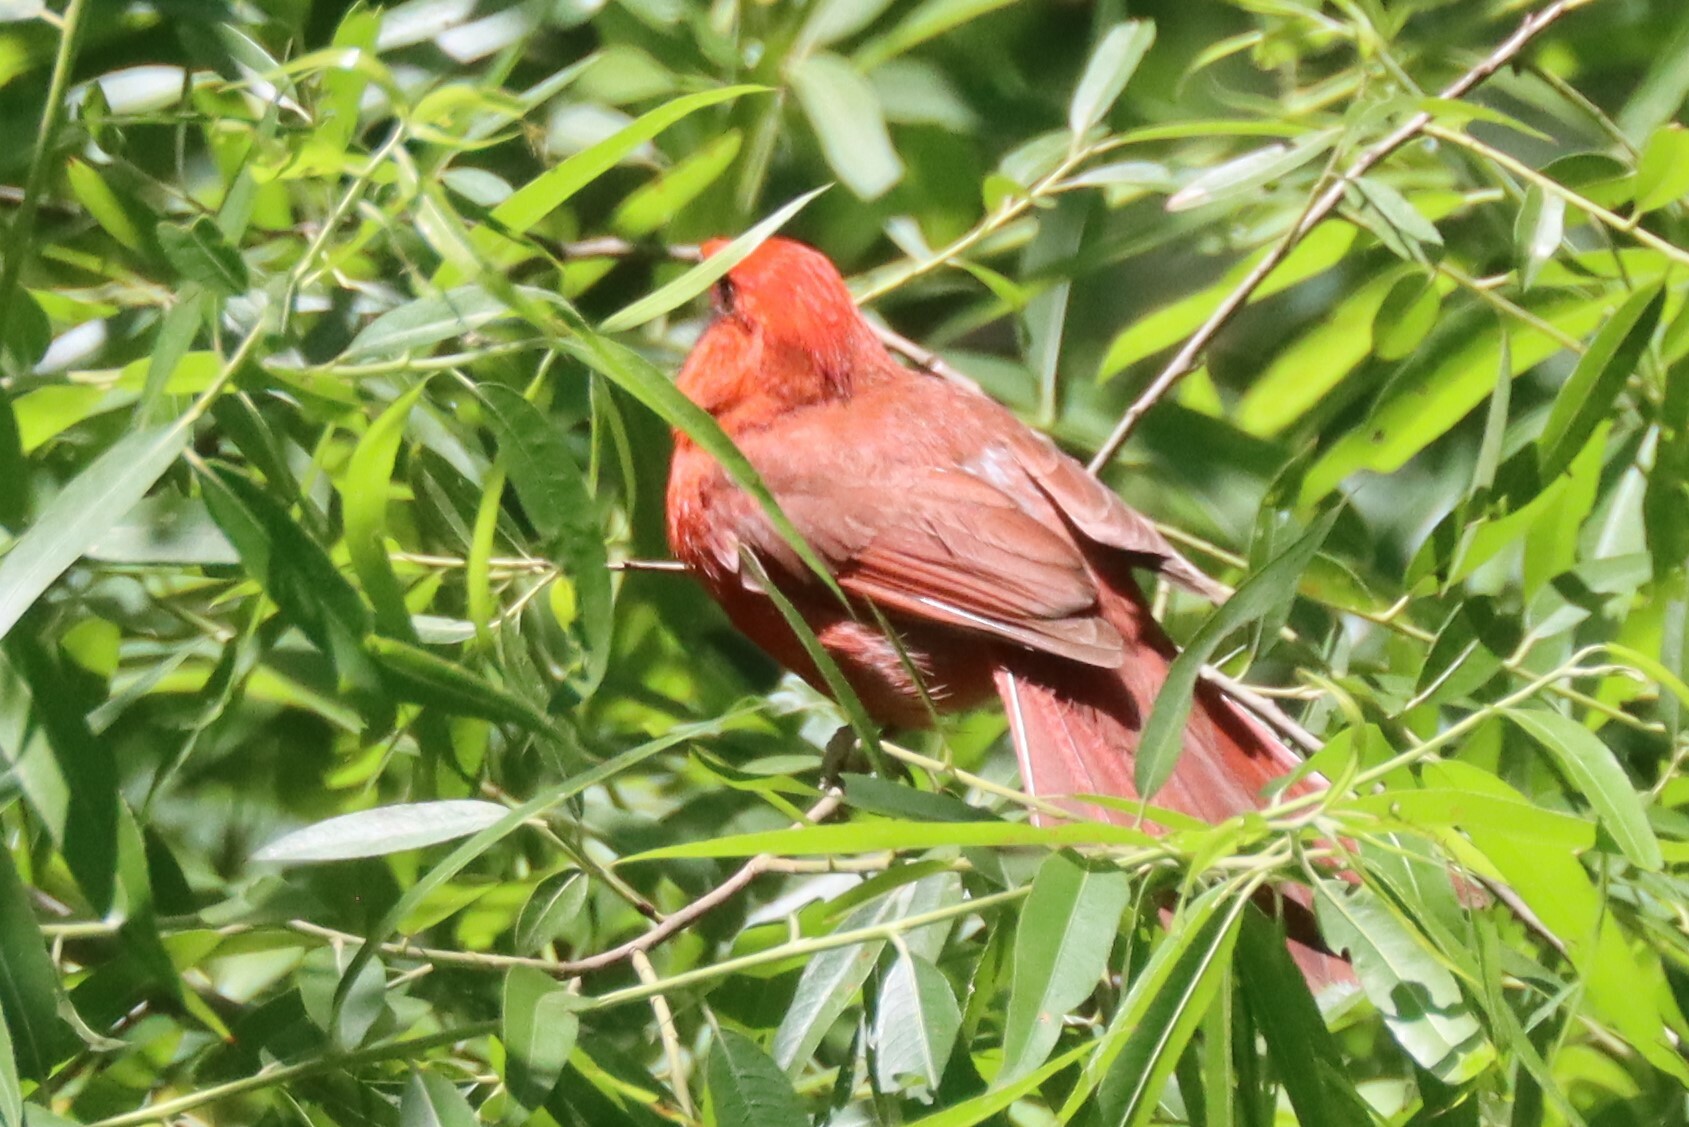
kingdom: Animalia
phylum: Chordata
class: Aves
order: Passeriformes
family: Cardinalidae
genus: Cardinalis
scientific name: Cardinalis cardinalis
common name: Northern cardinal
